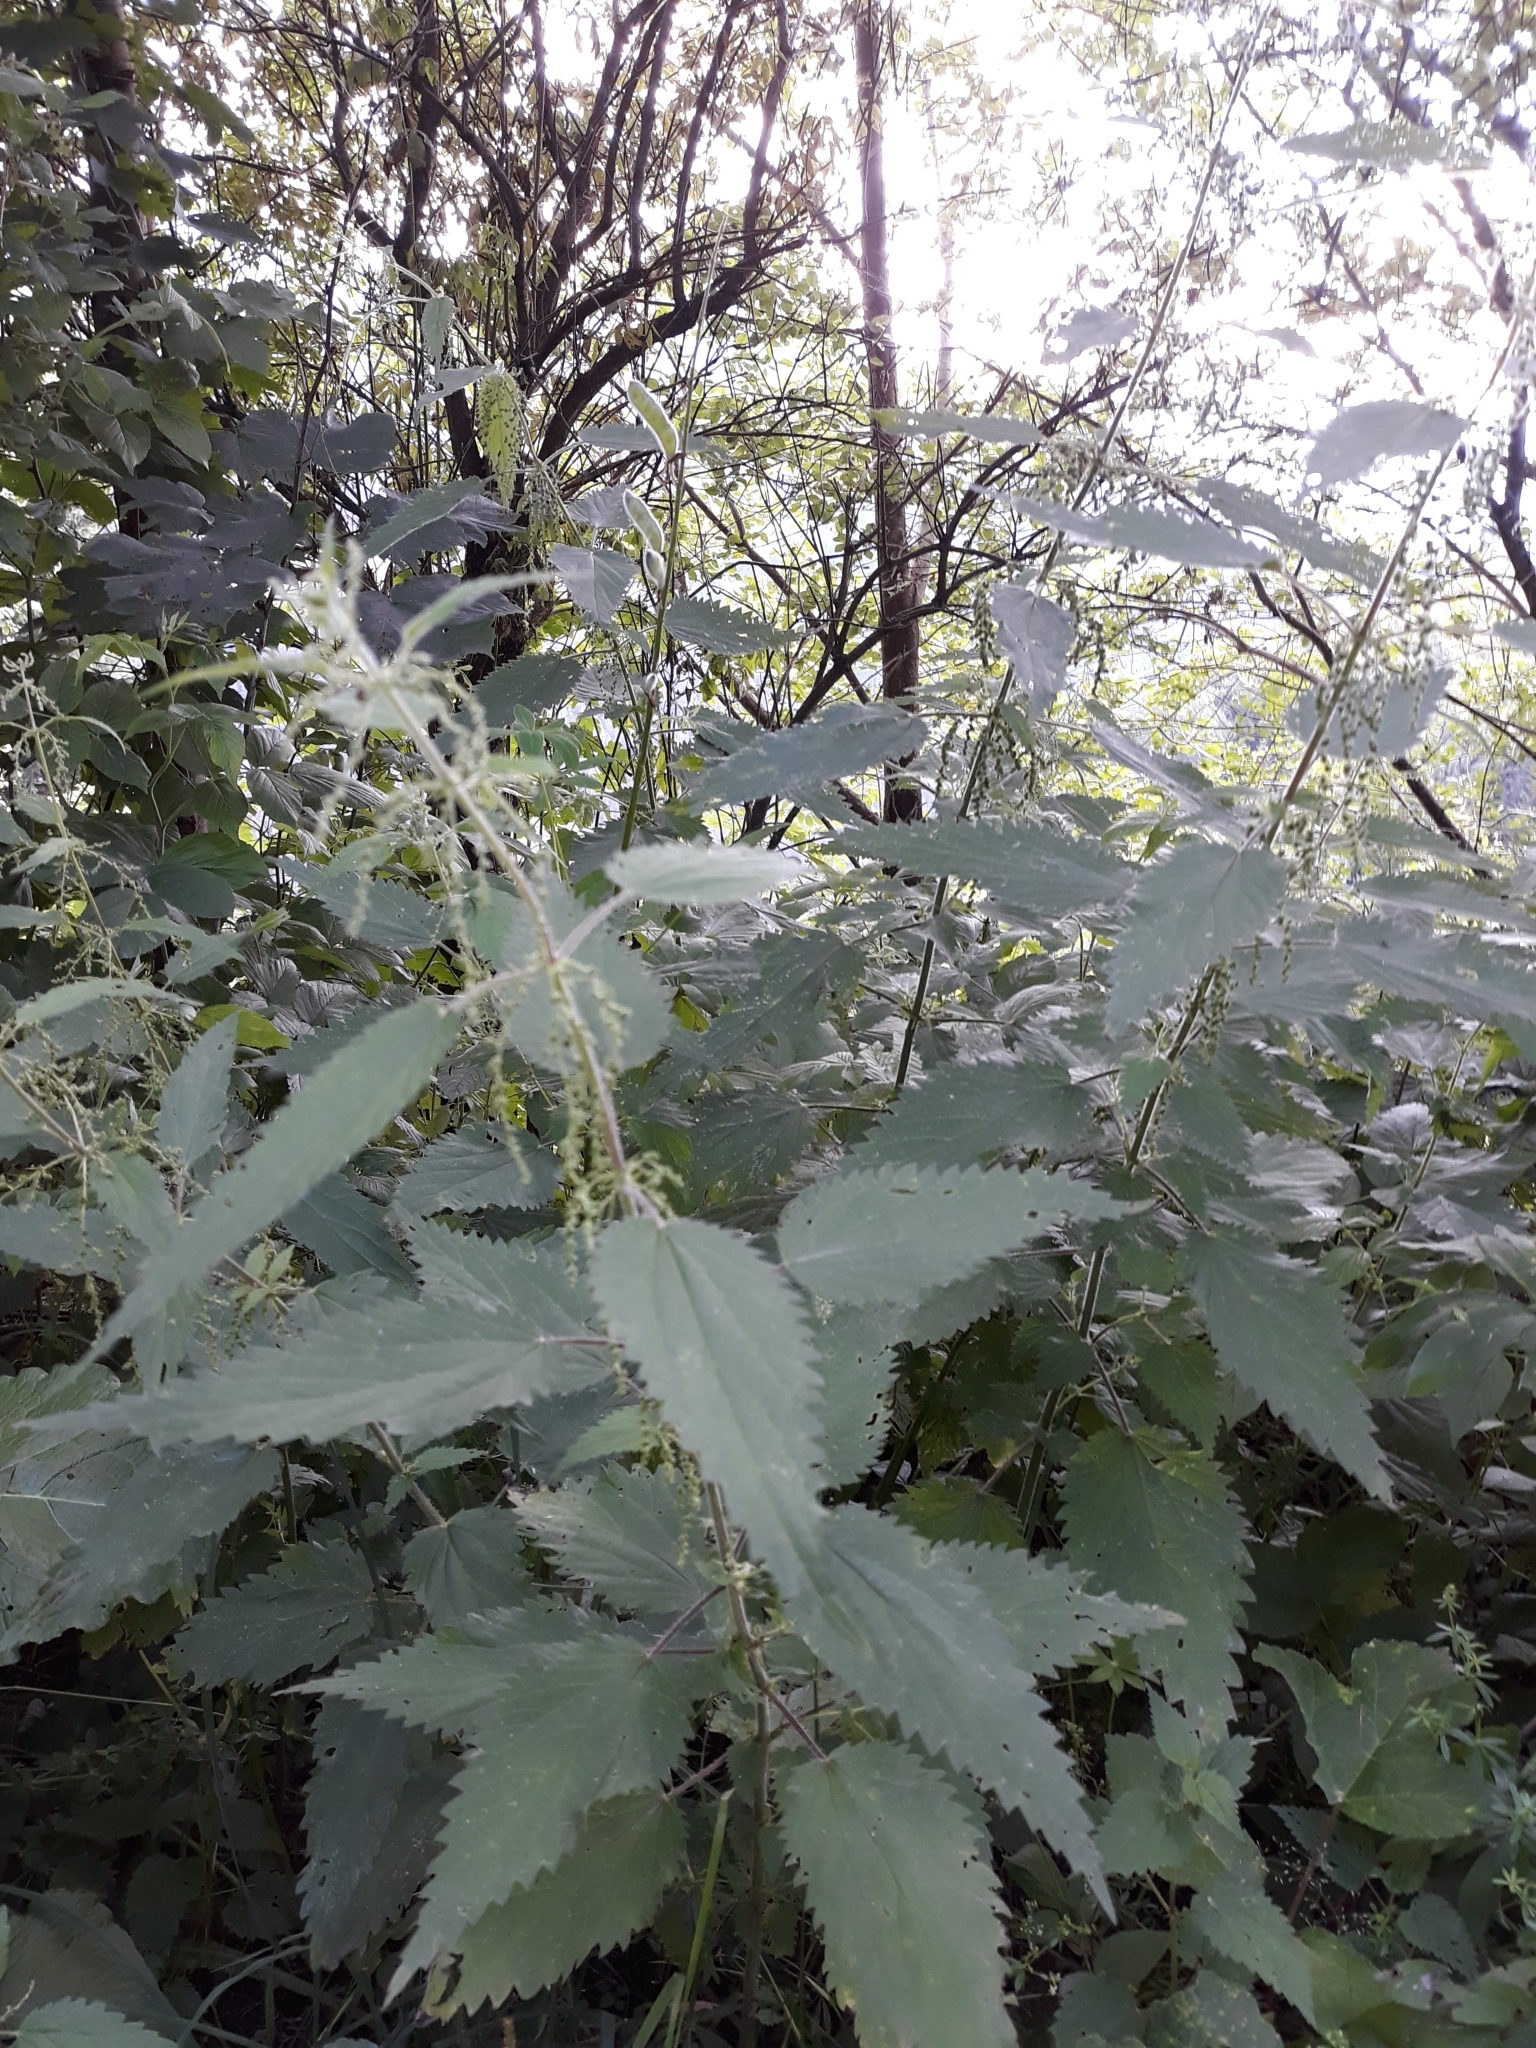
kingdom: Plantae
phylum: Tracheophyta
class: Magnoliopsida
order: Rosales
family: Urticaceae
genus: Urtica
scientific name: Urtica dioica
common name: Common nettle
